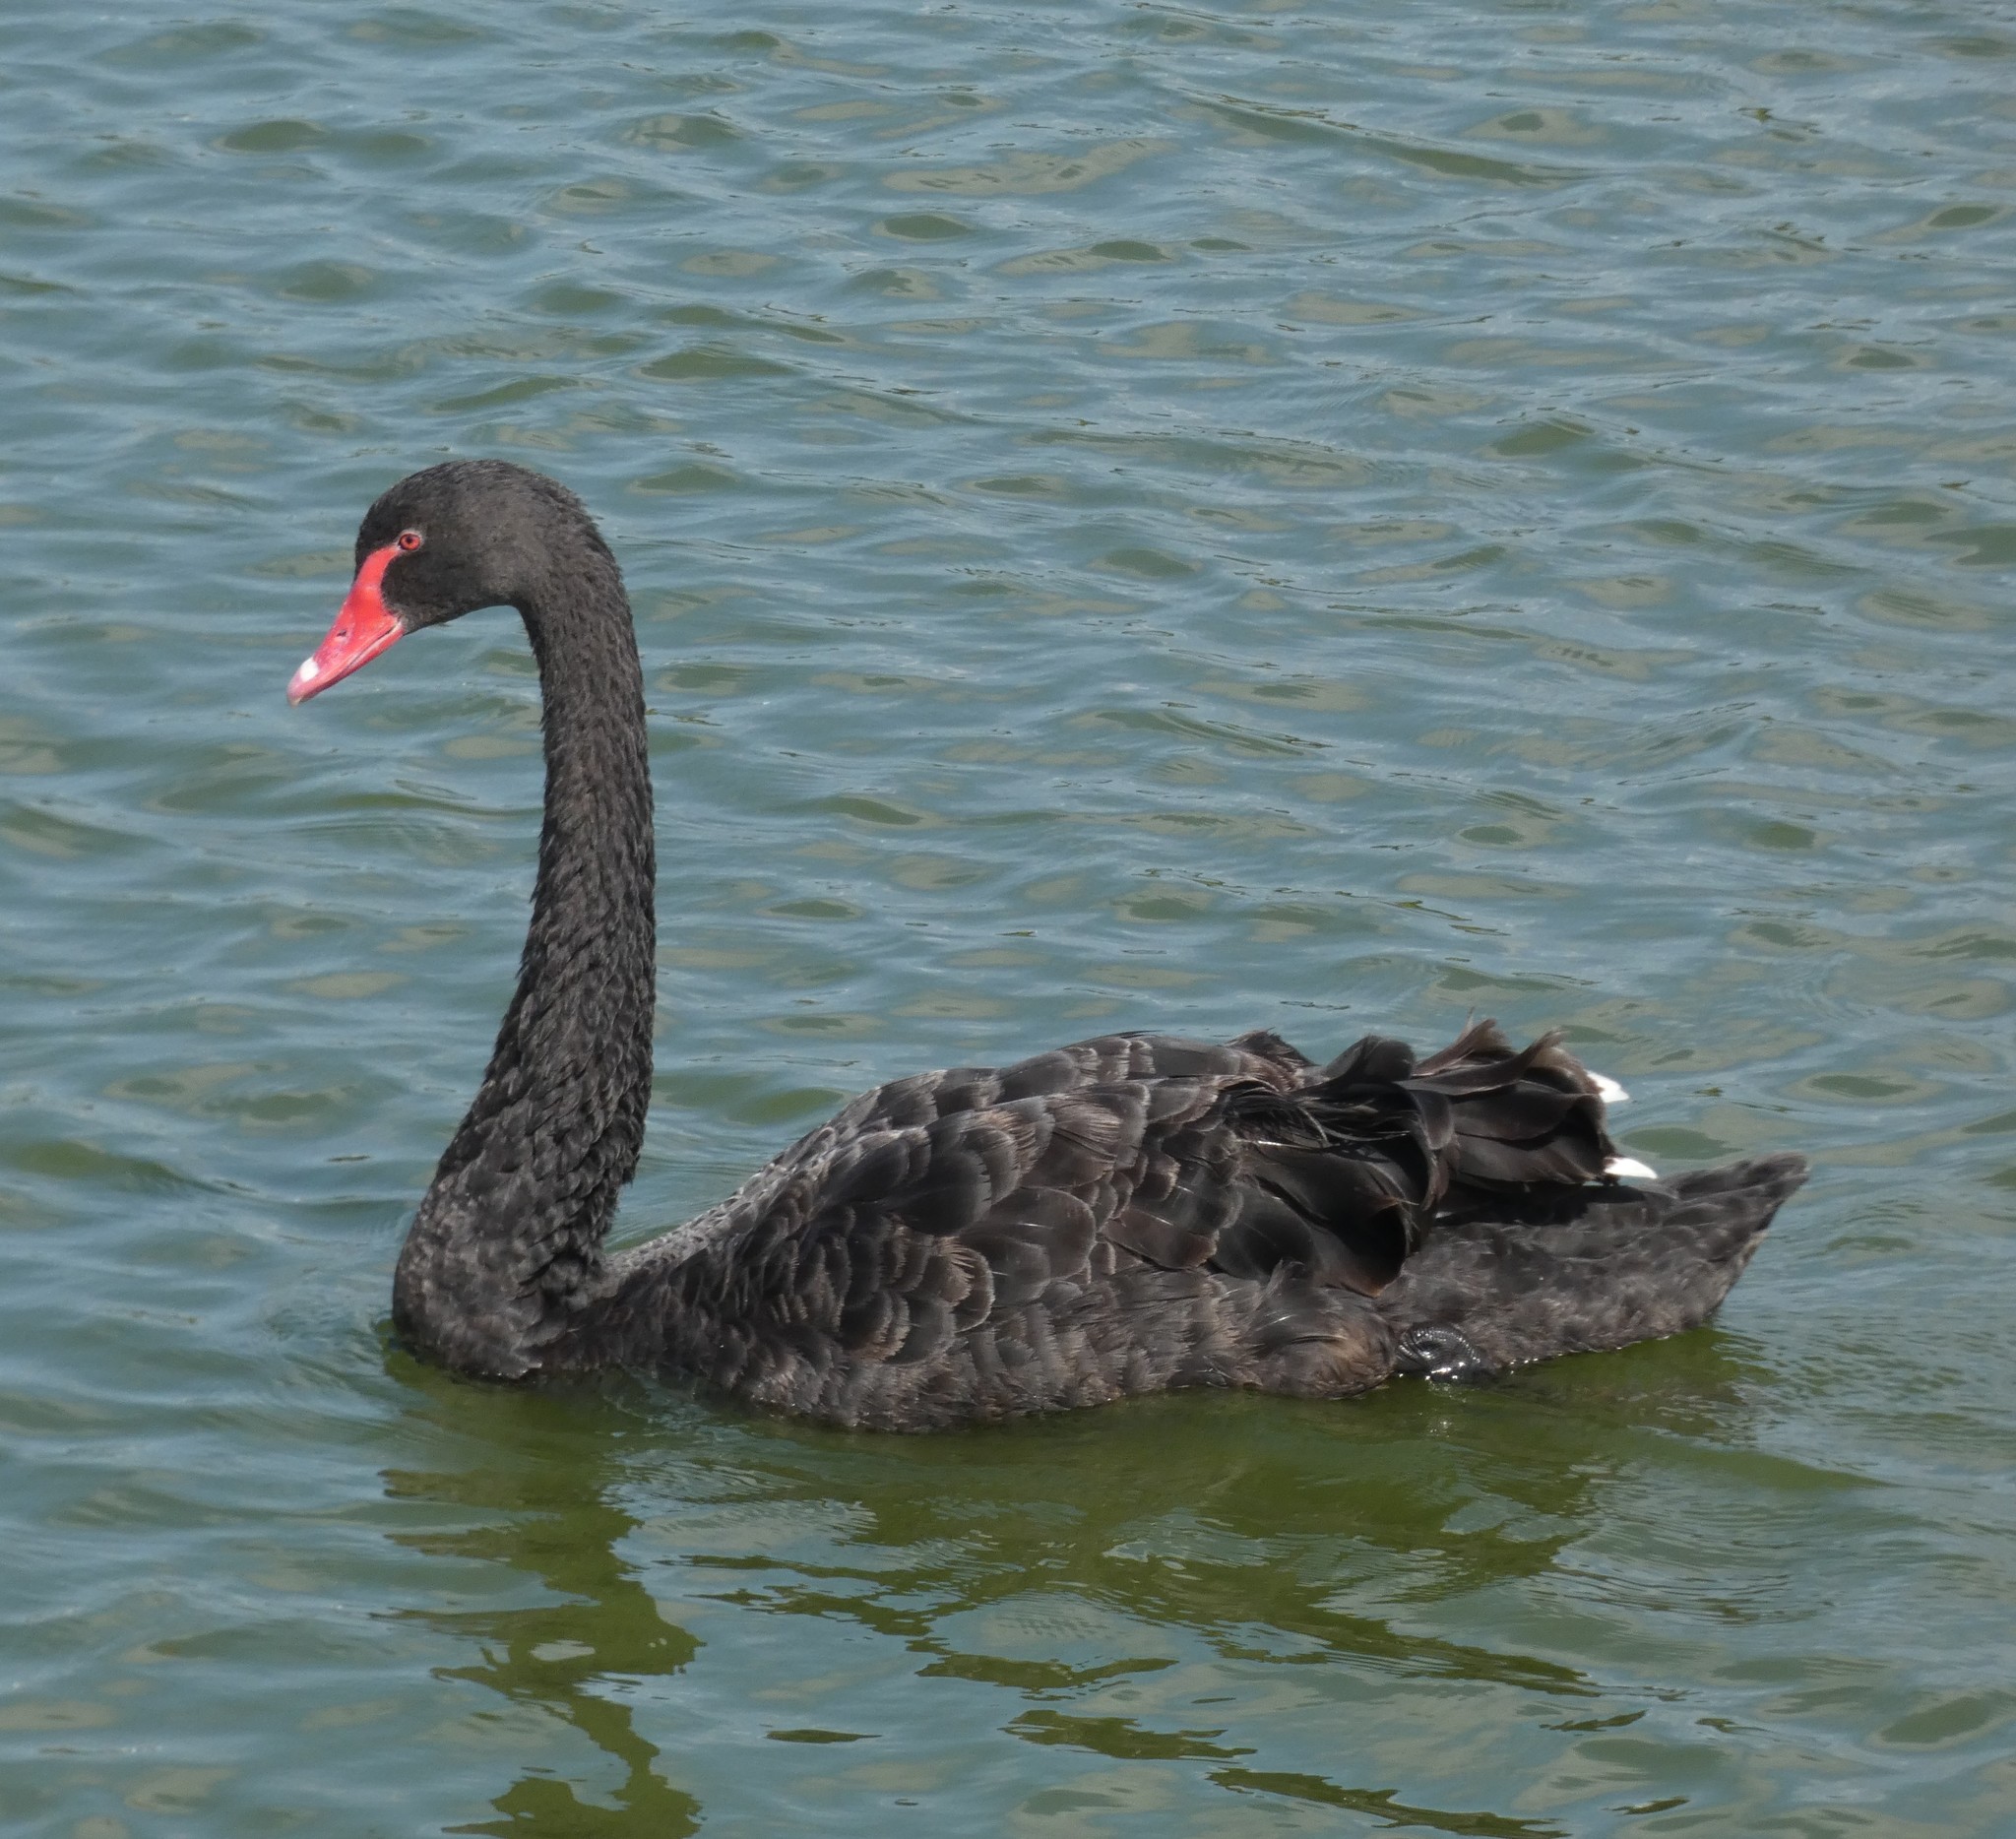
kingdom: Animalia
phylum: Chordata
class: Aves
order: Anseriformes
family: Anatidae
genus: Cygnus
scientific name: Cygnus atratus
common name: Black swan
